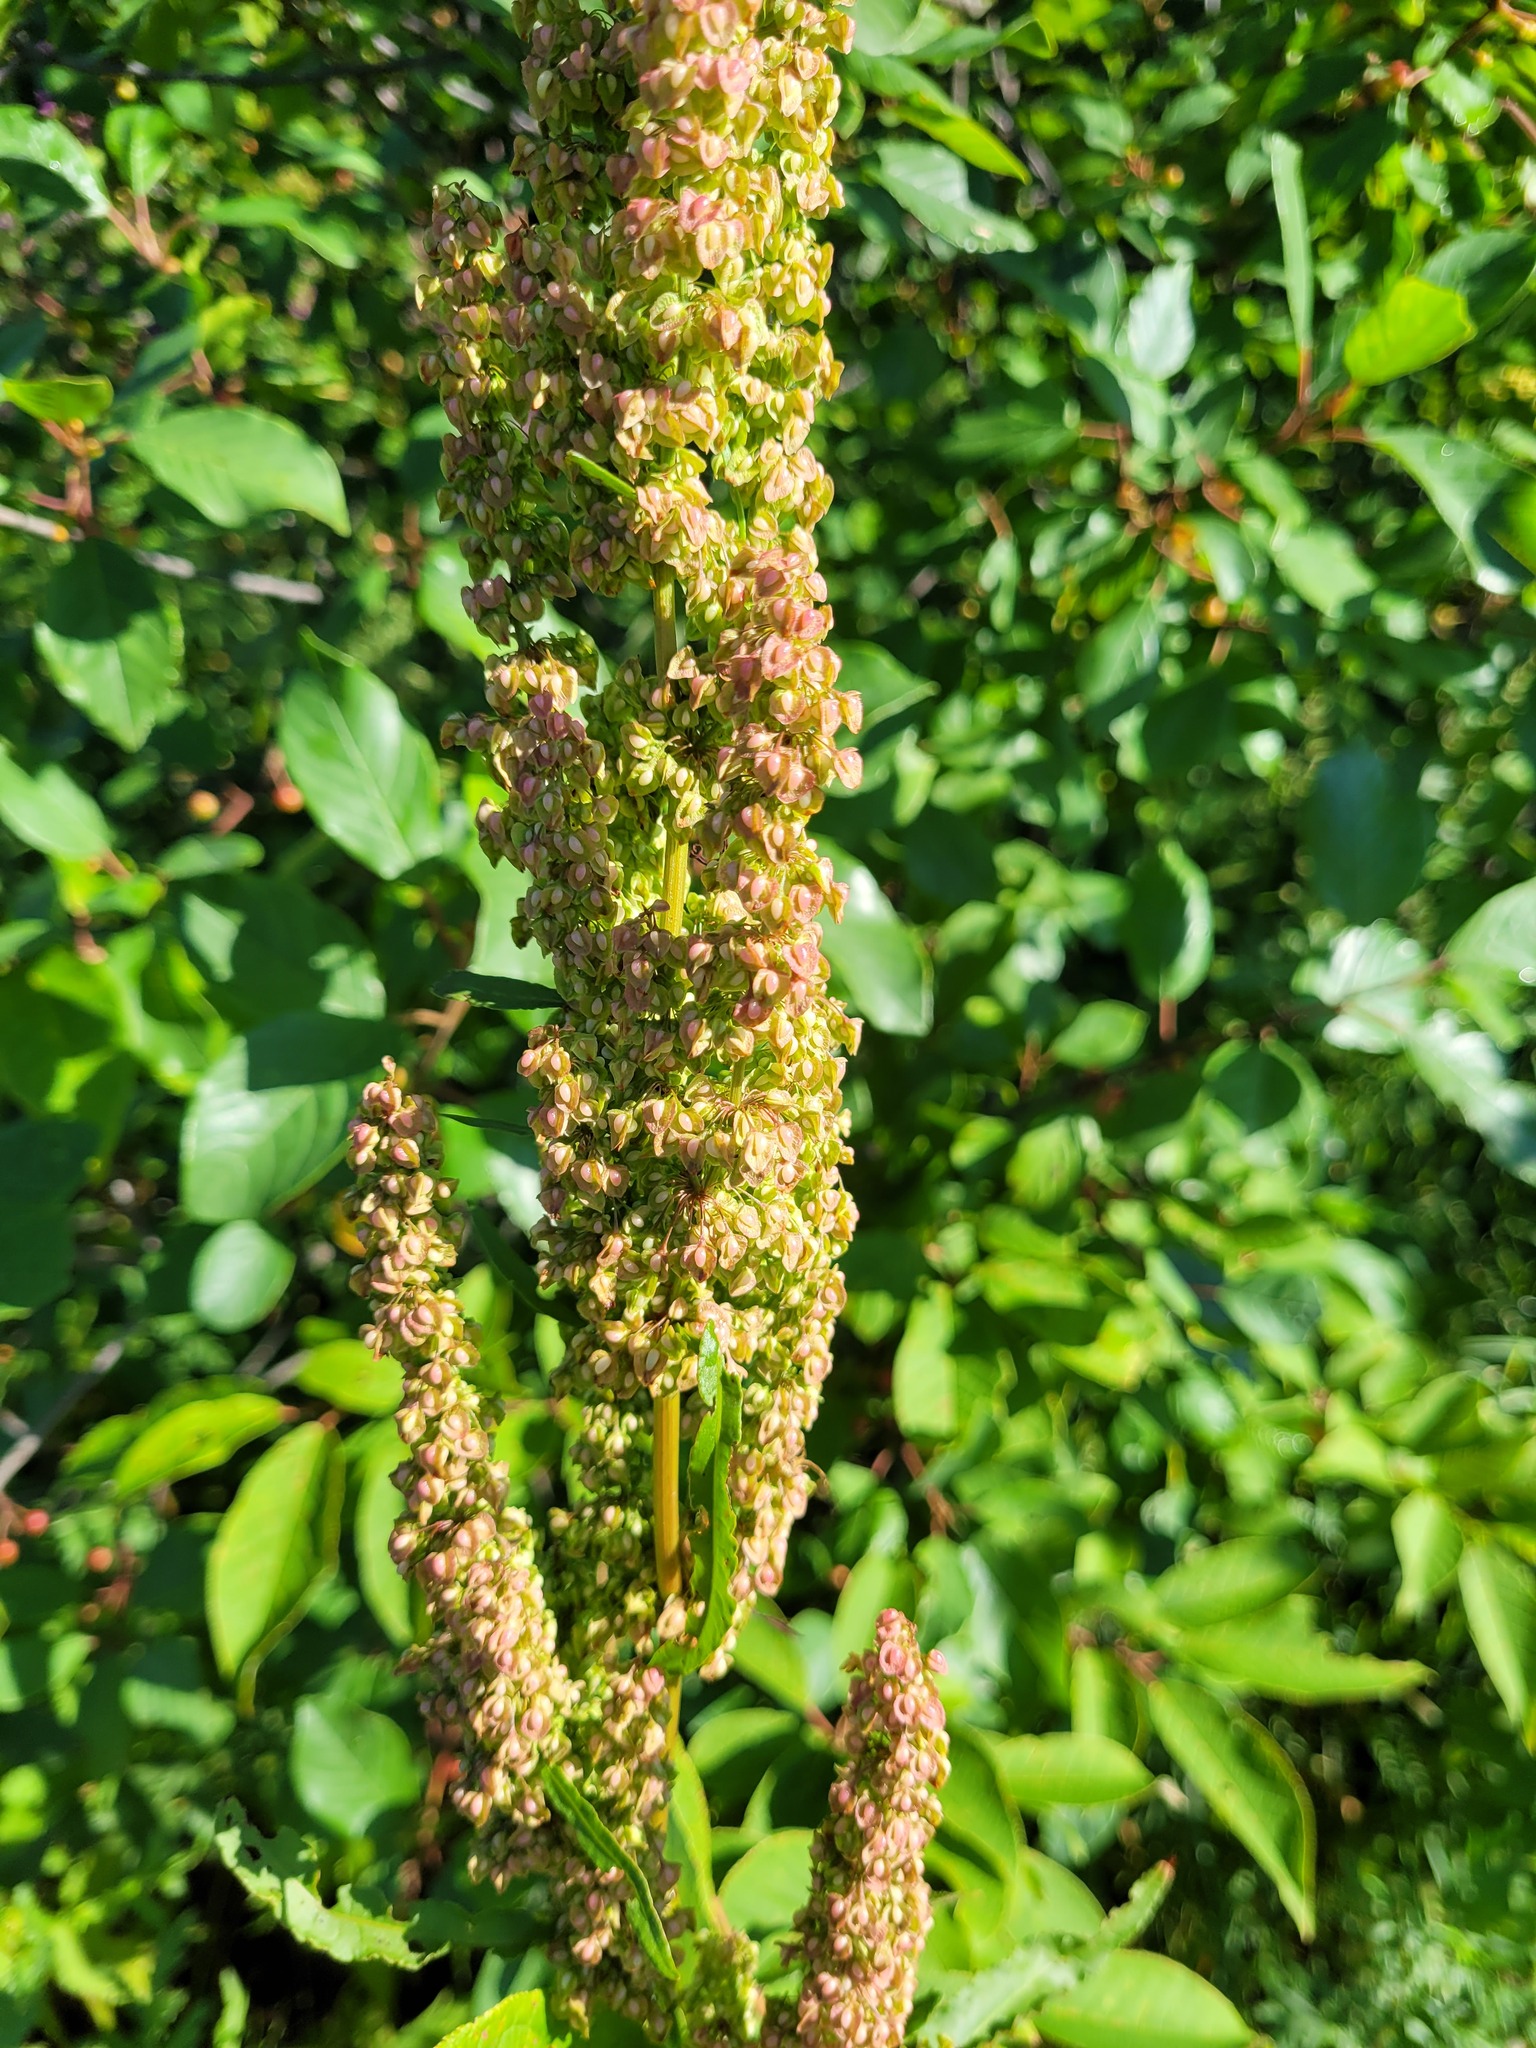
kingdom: Plantae
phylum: Tracheophyta
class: Magnoliopsida
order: Caryophyllales
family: Polygonaceae
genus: Rumex
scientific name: Rumex crispus
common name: Curled dock
